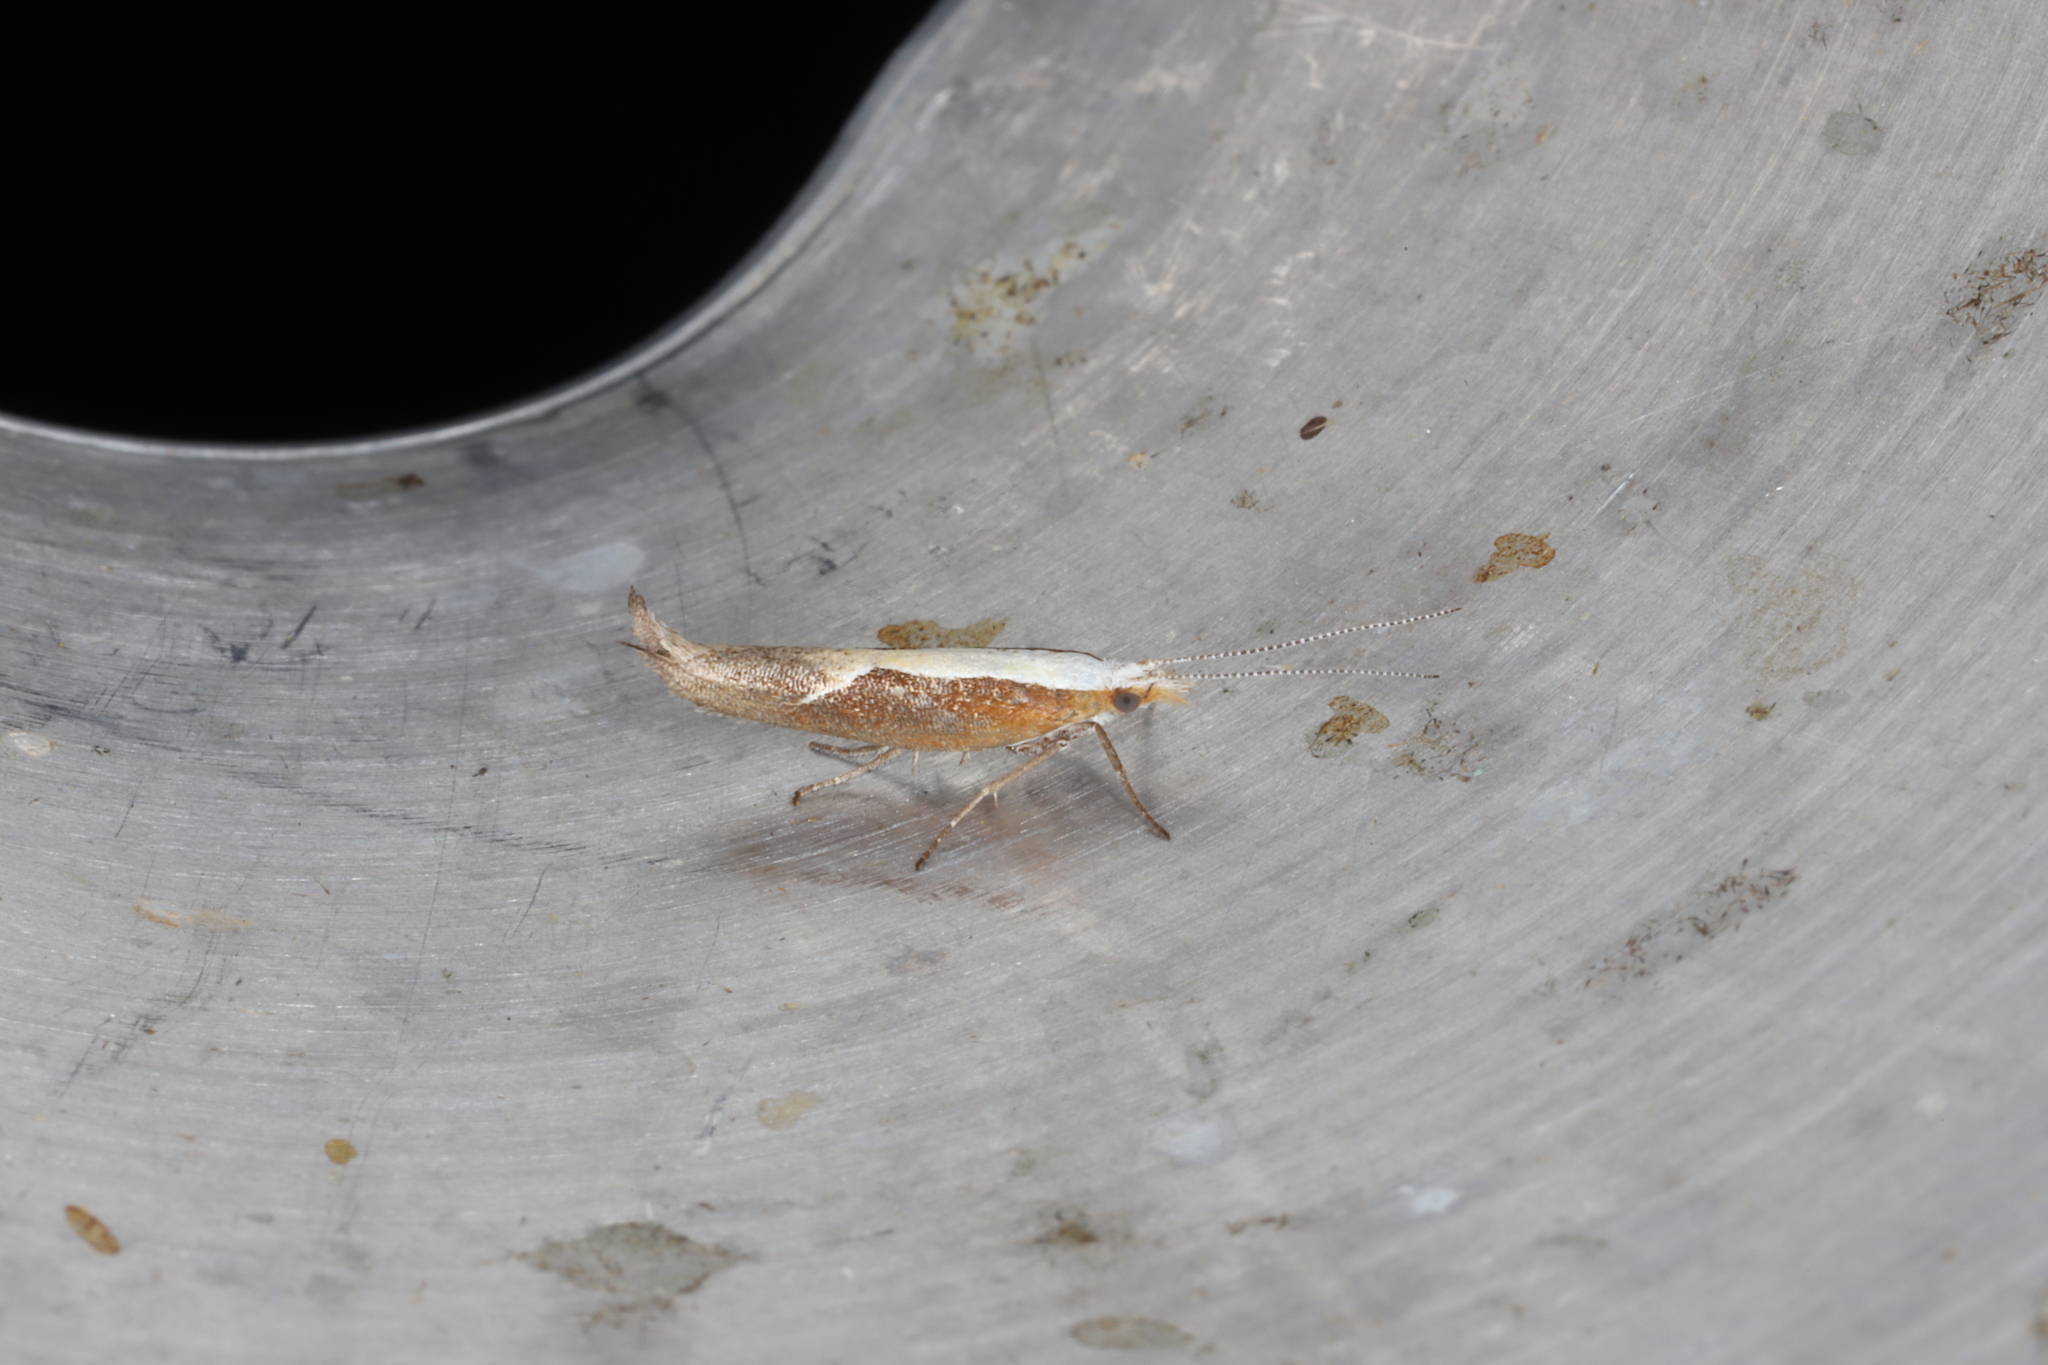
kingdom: Animalia
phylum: Arthropoda
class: Insecta
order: Lepidoptera
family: Ypsolophidae
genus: Ypsolopha
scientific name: Ypsolopha dentella
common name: Honeysuckle moth
